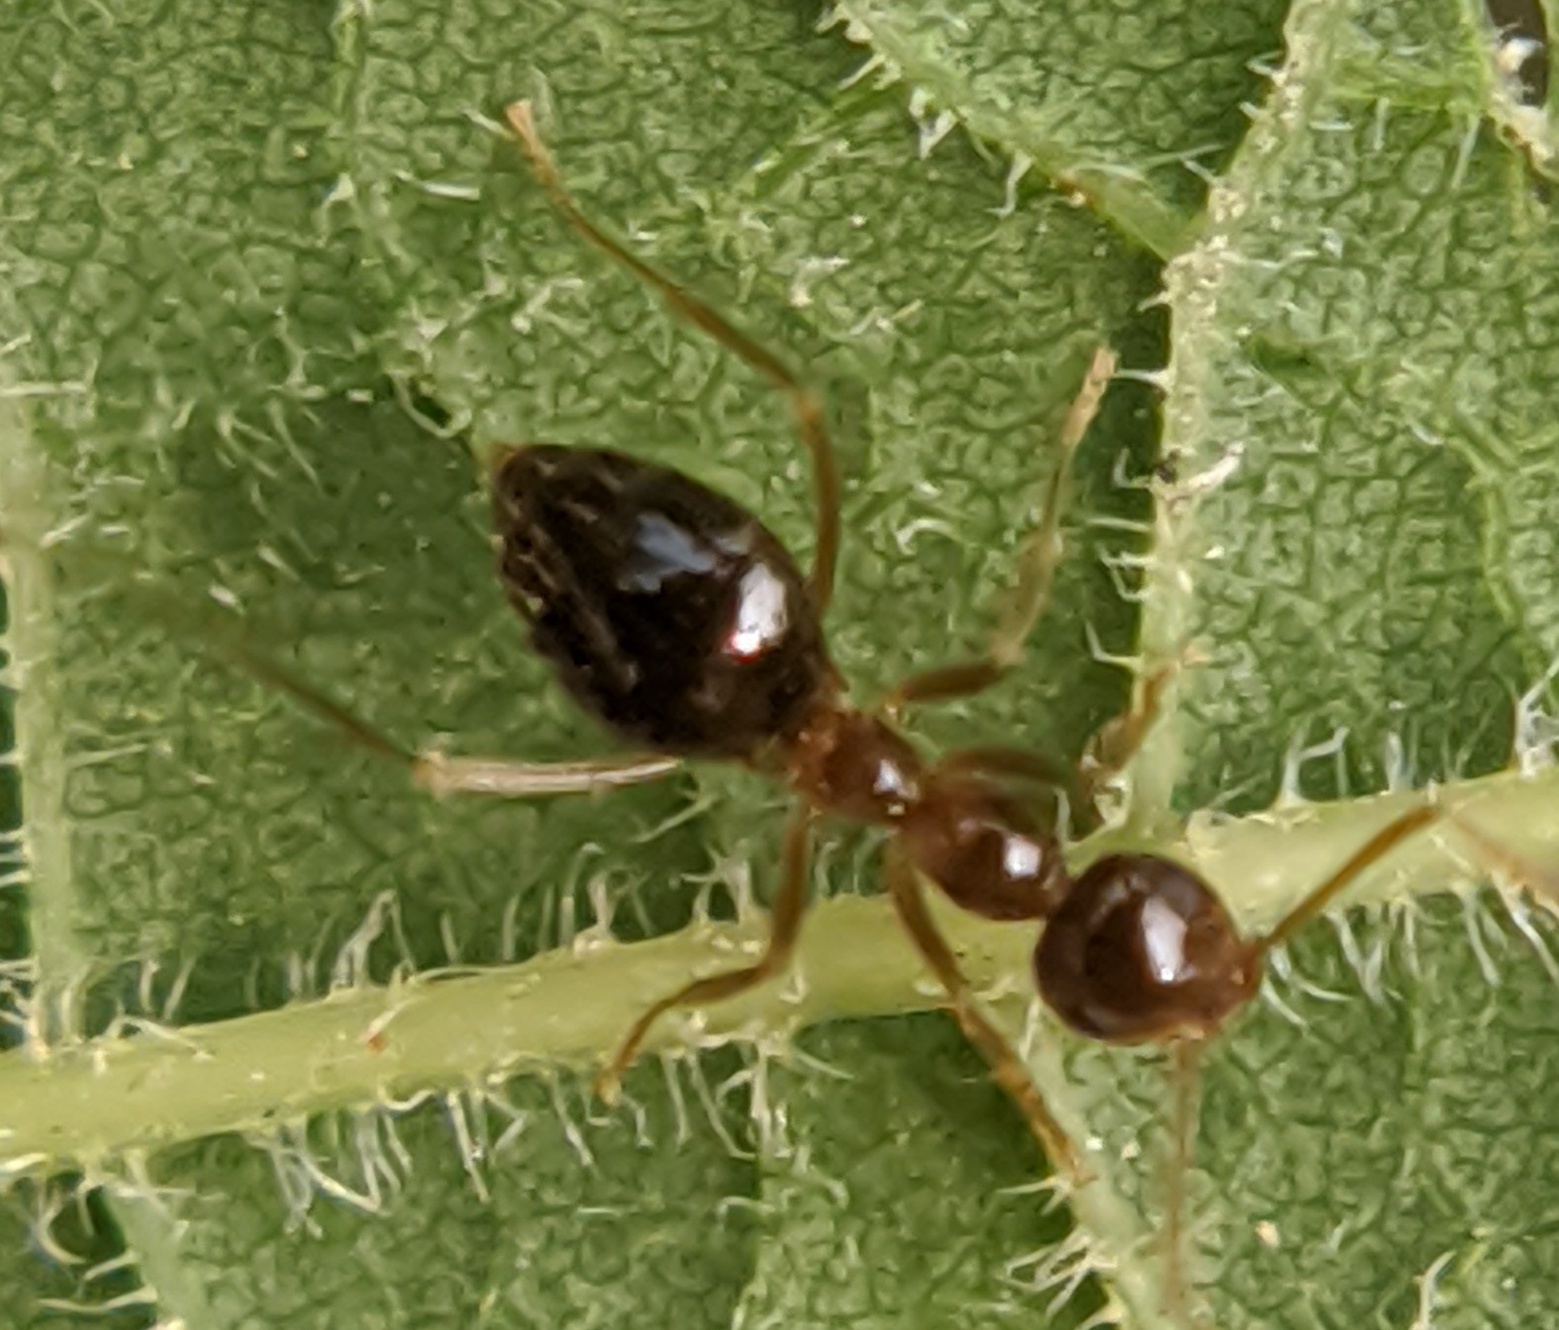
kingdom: Animalia
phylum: Arthropoda
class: Insecta
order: Hymenoptera
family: Formicidae
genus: Prenolepis
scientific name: Prenolepis imparis
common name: Small honey ant
